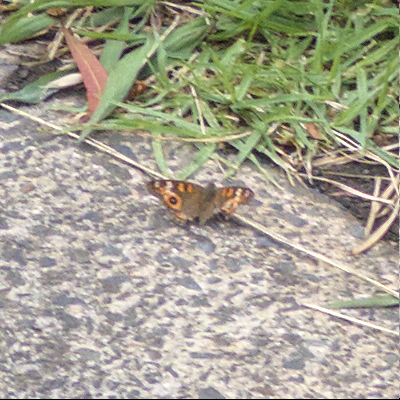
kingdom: Animalia
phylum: Arthropoda
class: Insecta
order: Lepidoptera
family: Nymphalidae
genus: Junonia
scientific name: Junonia villida
